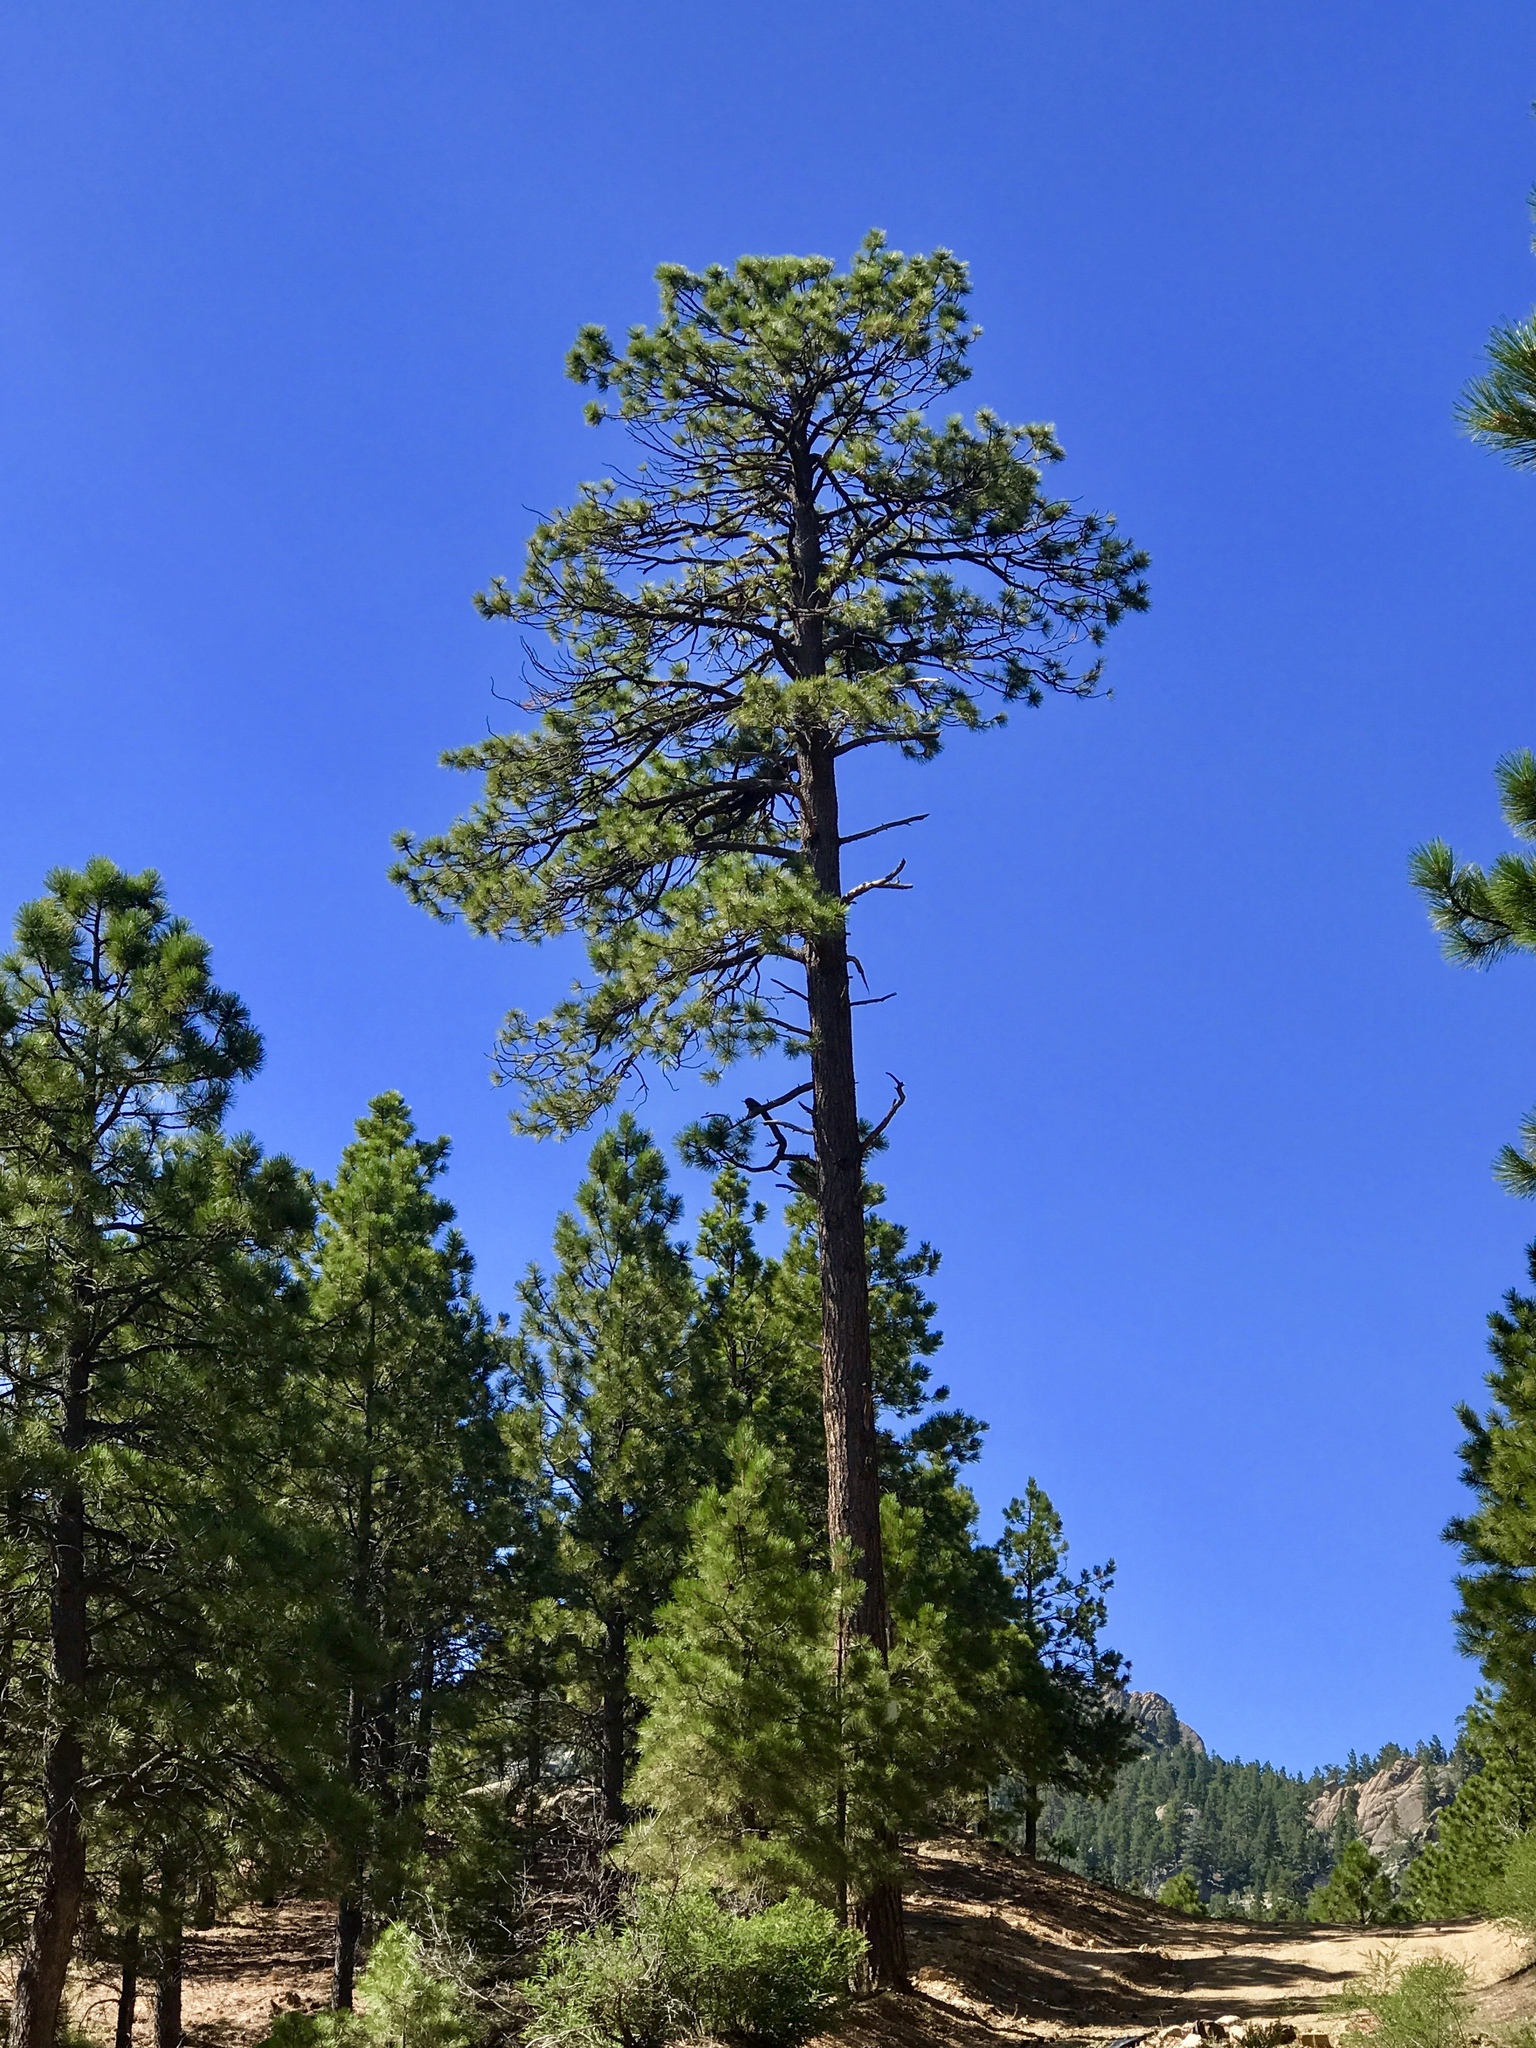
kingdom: Plantae
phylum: Tracheophyta
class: Pinopsida
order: Pinales
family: Pinaceae
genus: Pinus
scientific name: Pinus ponderosa
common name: Western yellow-pine
